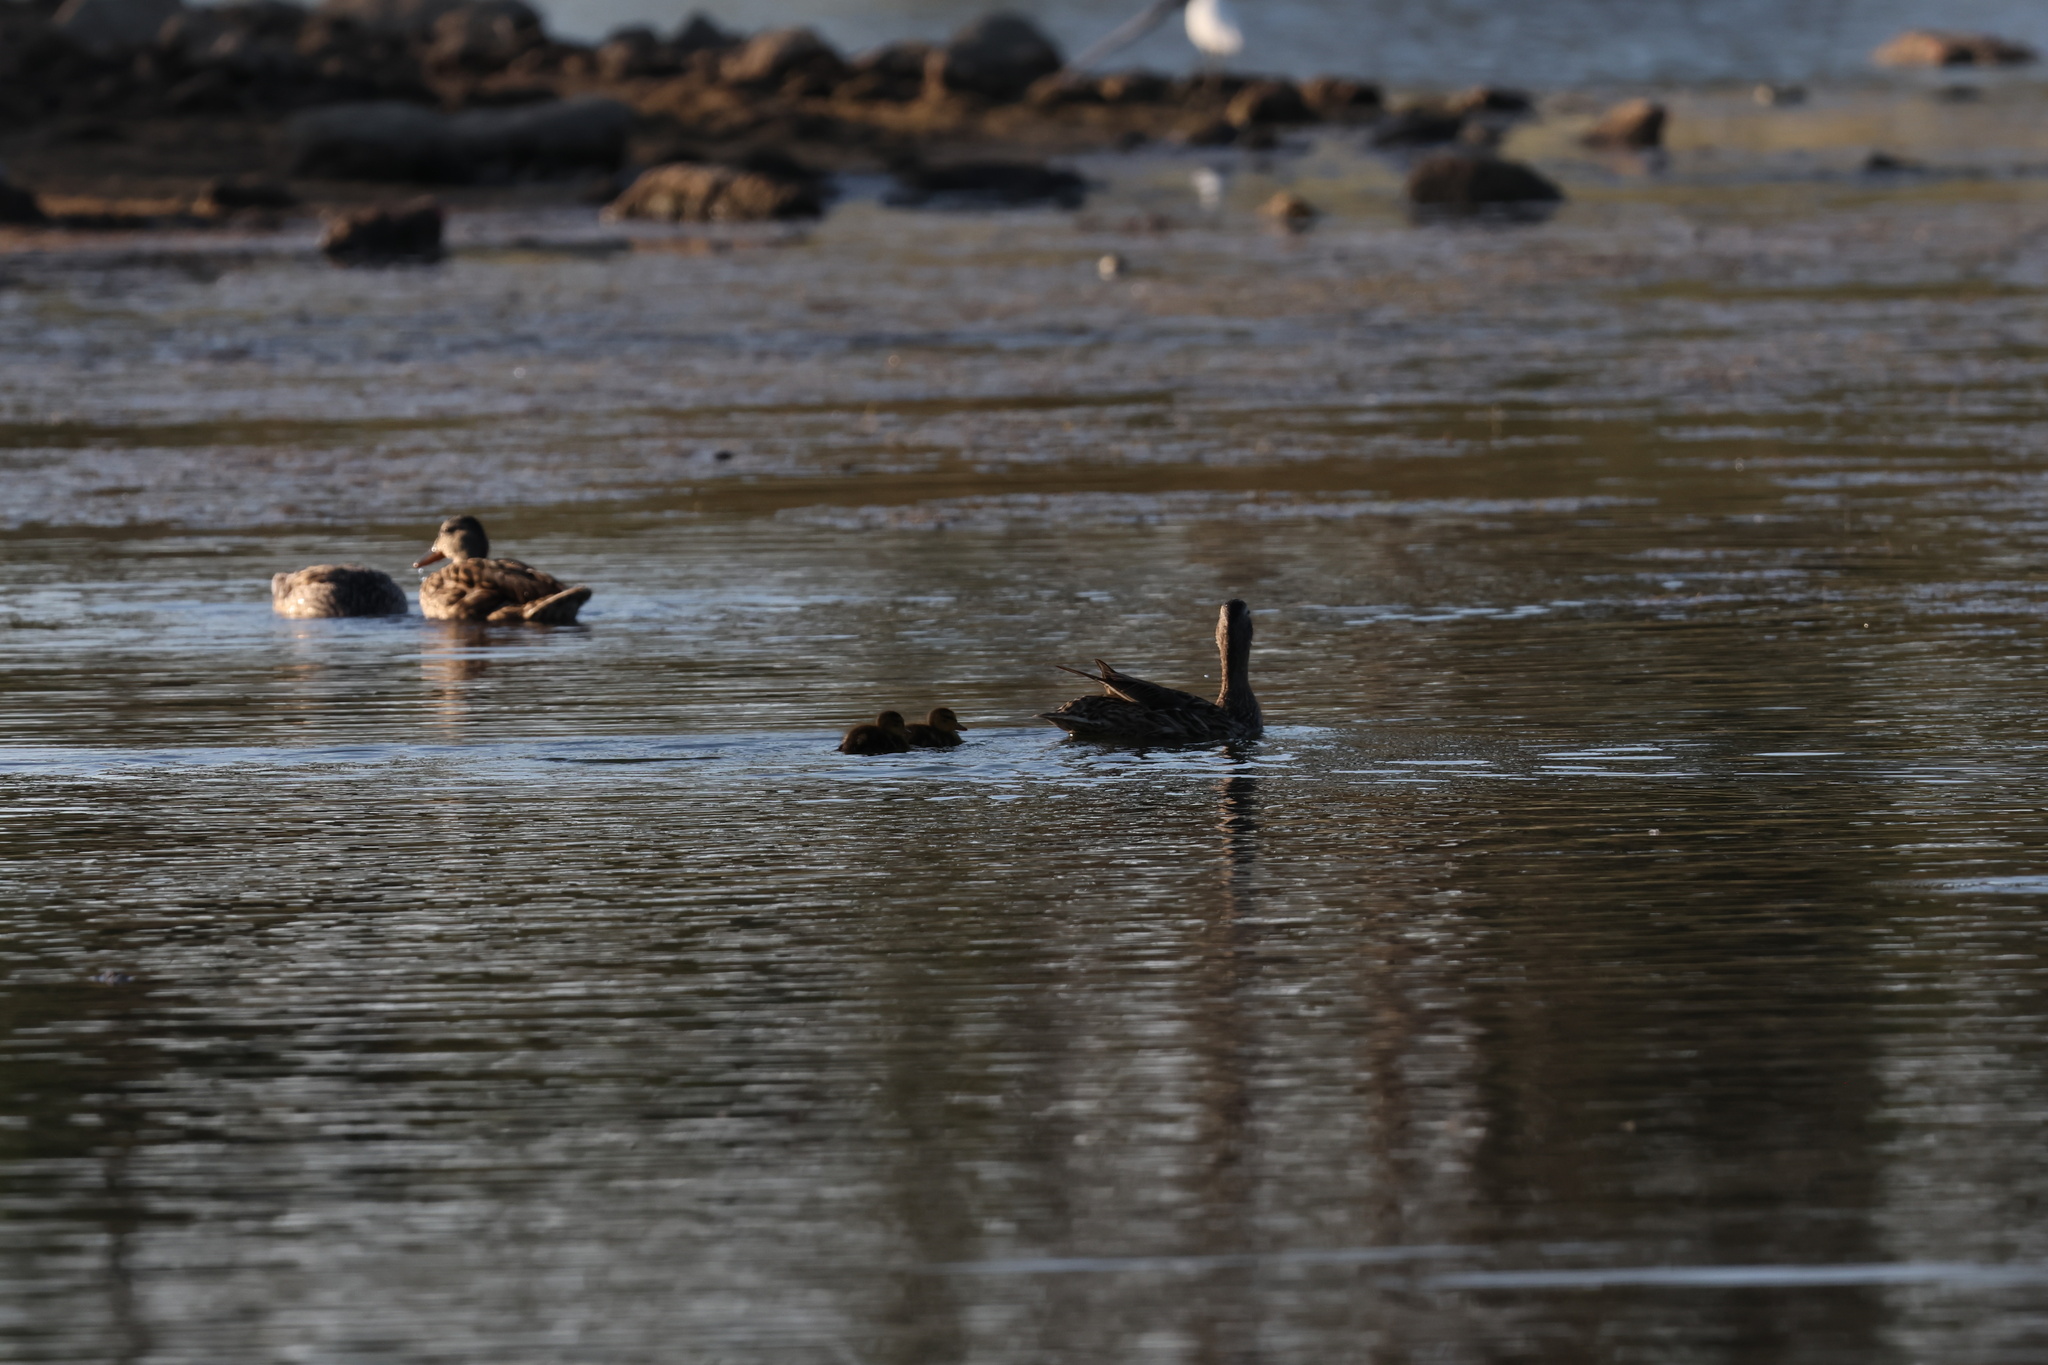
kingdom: Animalia
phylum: Chordata
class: Aves
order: Anseriformes
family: Anatidae
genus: Anas
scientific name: Anas platyrhynchos
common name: Mallard
